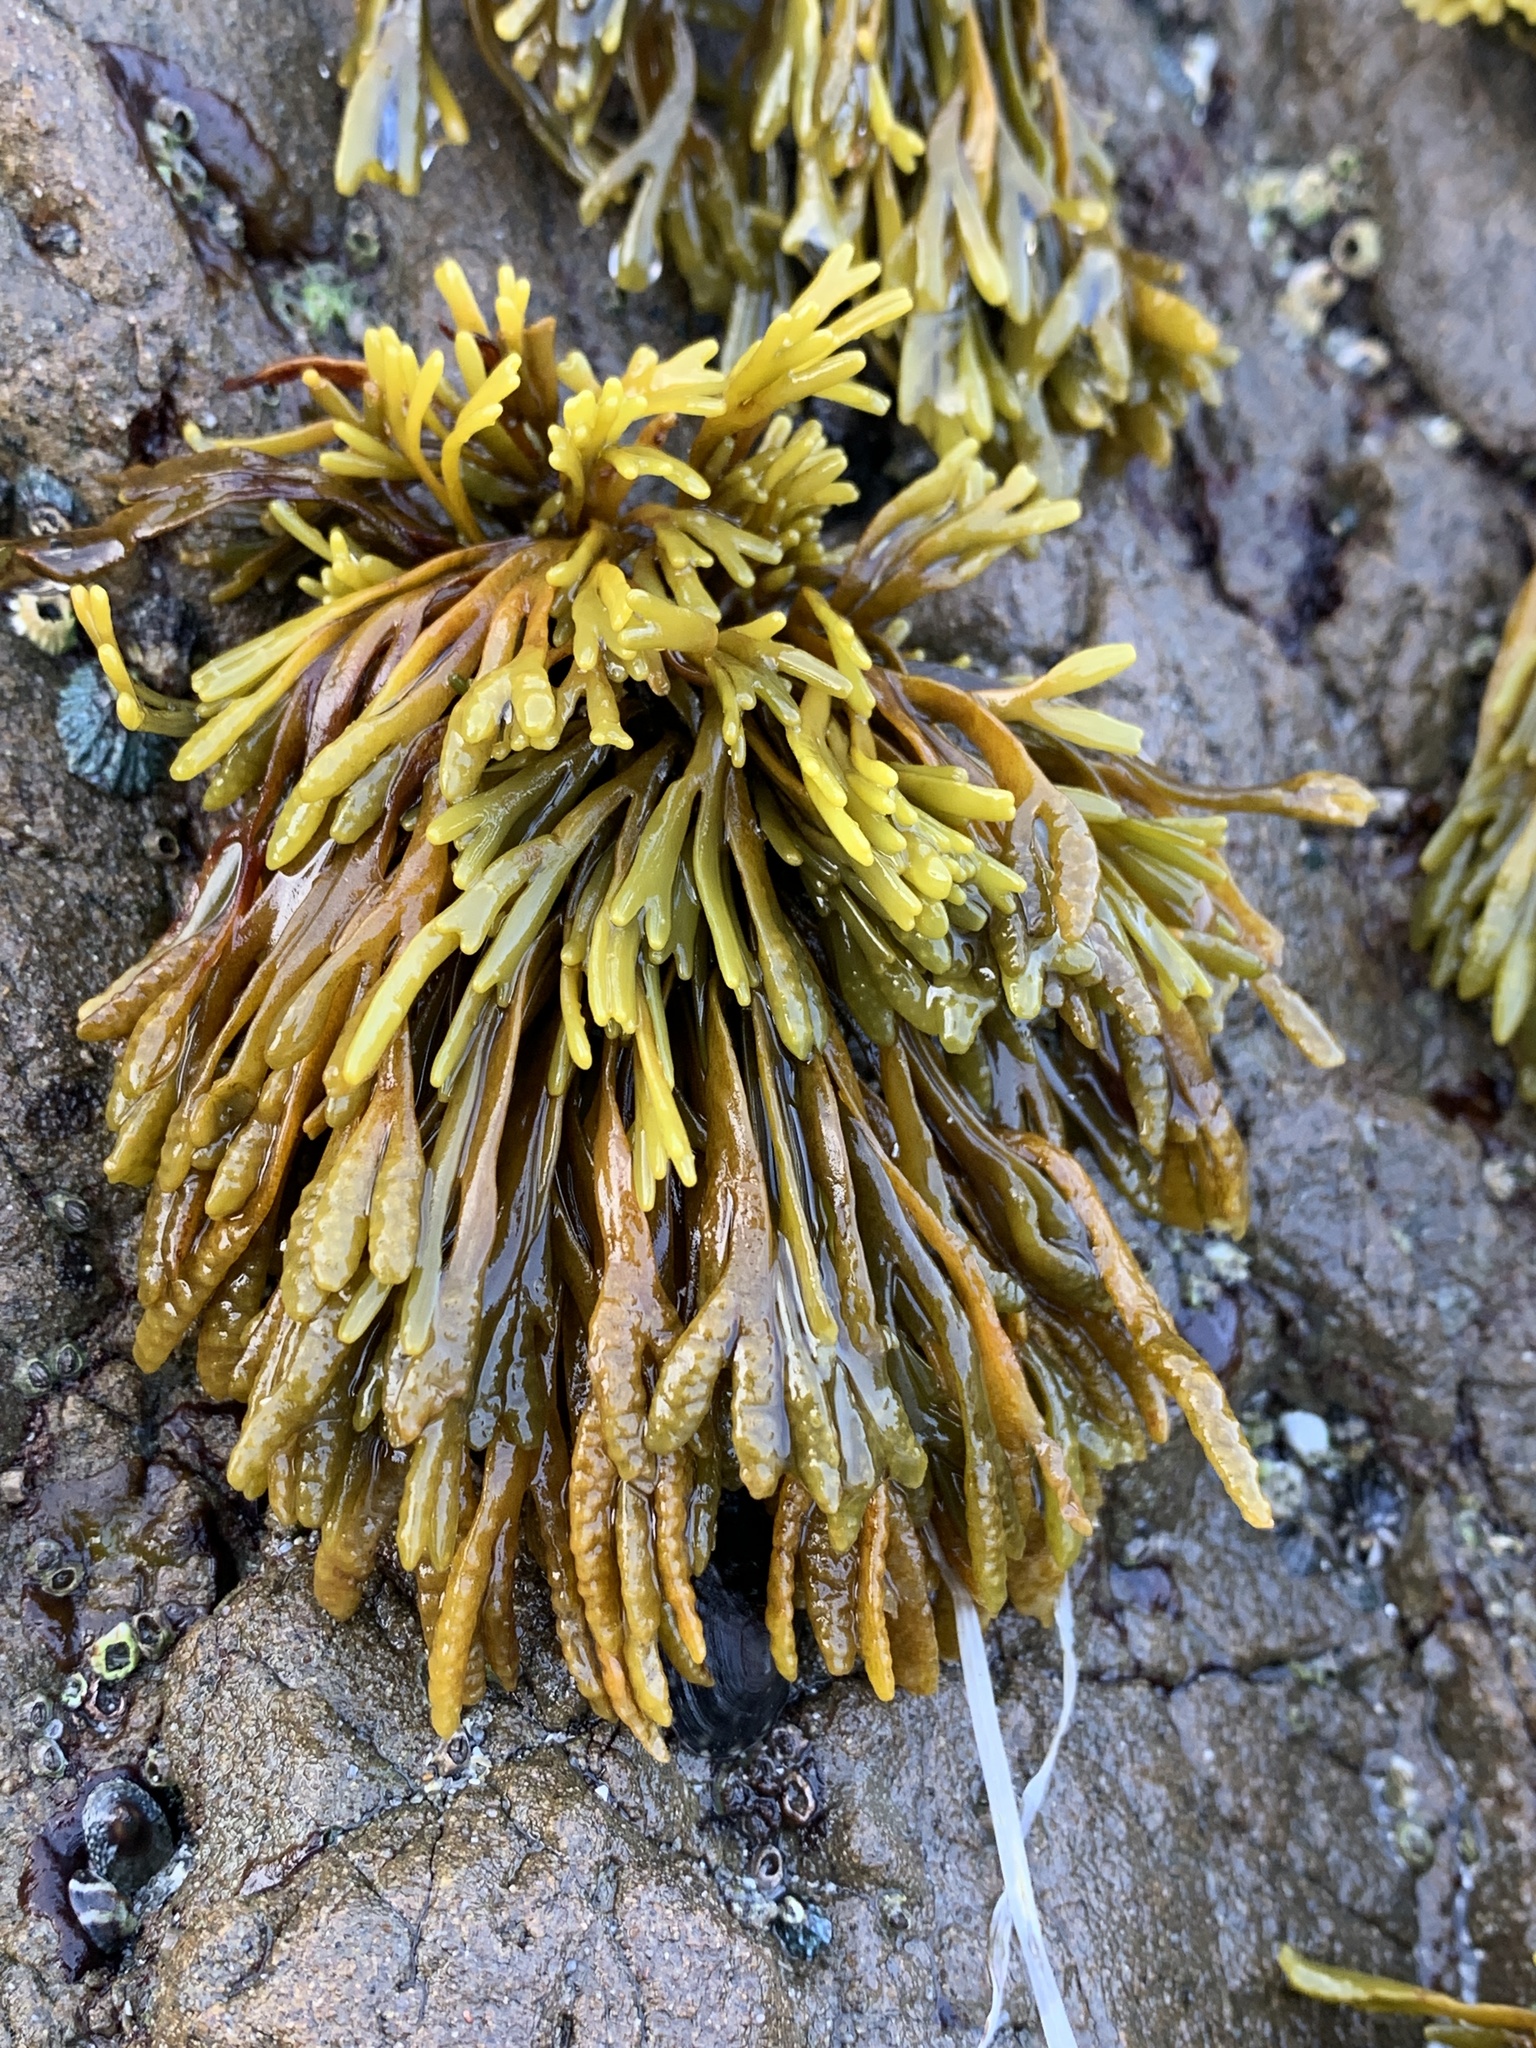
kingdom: Chromista
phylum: Ochrophyta
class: Phaeophyceae
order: Fucales
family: Fucaceae
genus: Pelvetiopsis
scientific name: Pelvetiopsis limitata
